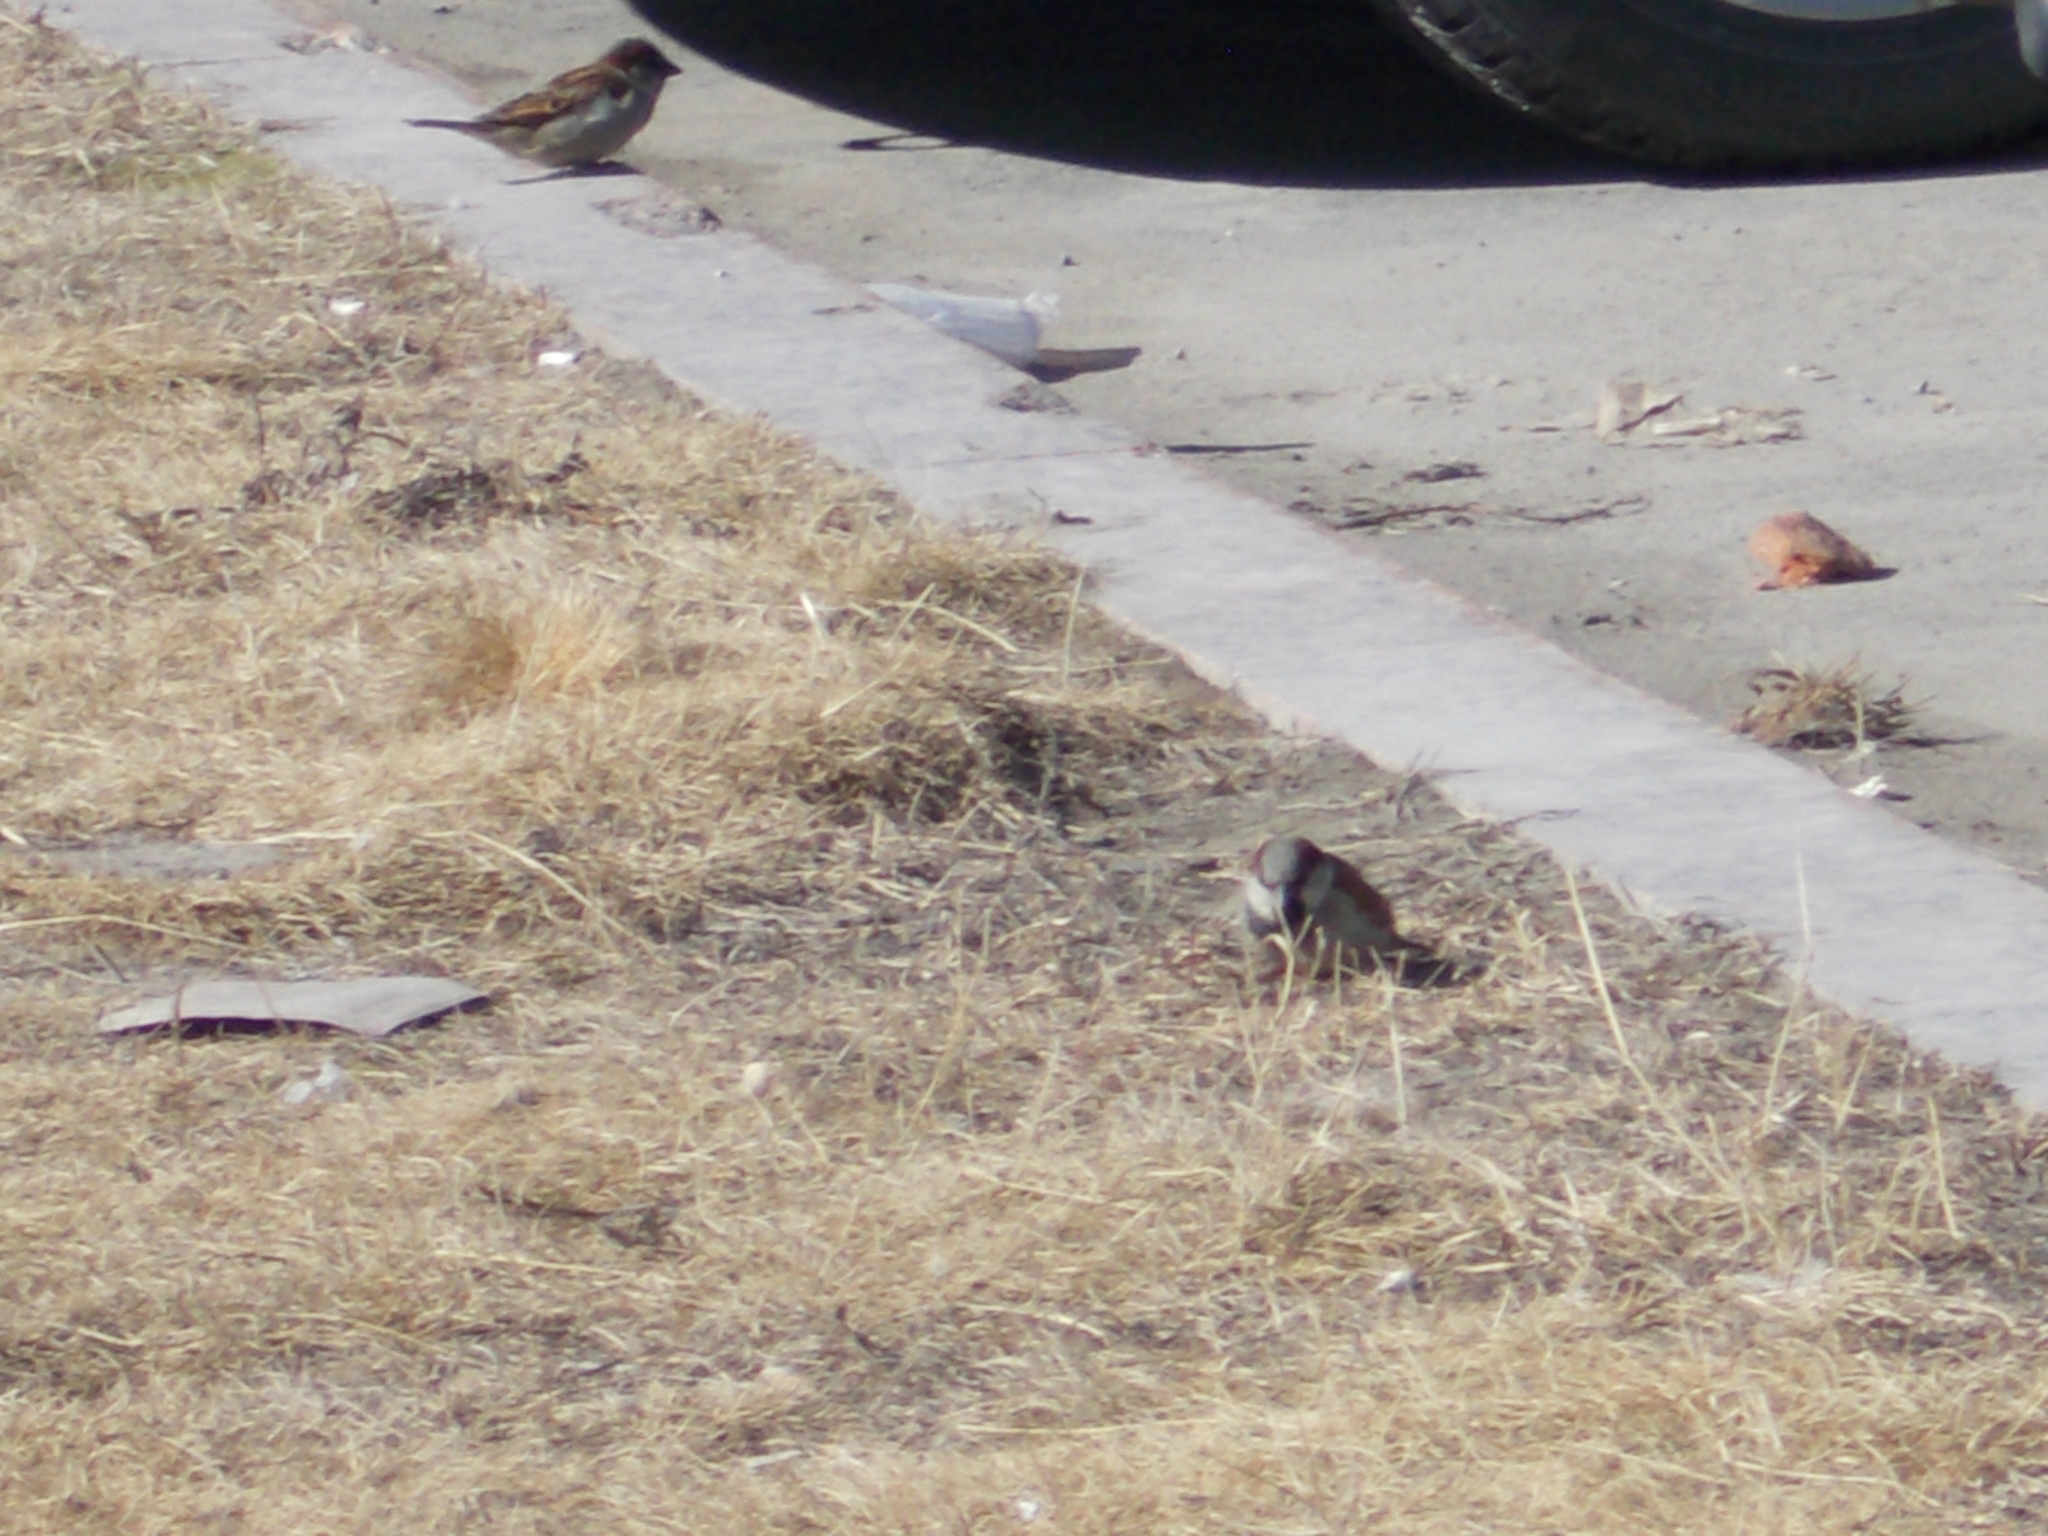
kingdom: Animalia
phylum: Chordata
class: Aves
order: Passeriformes
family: Passeridae
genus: Passer
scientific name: Passer domesticus
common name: House sparrow
